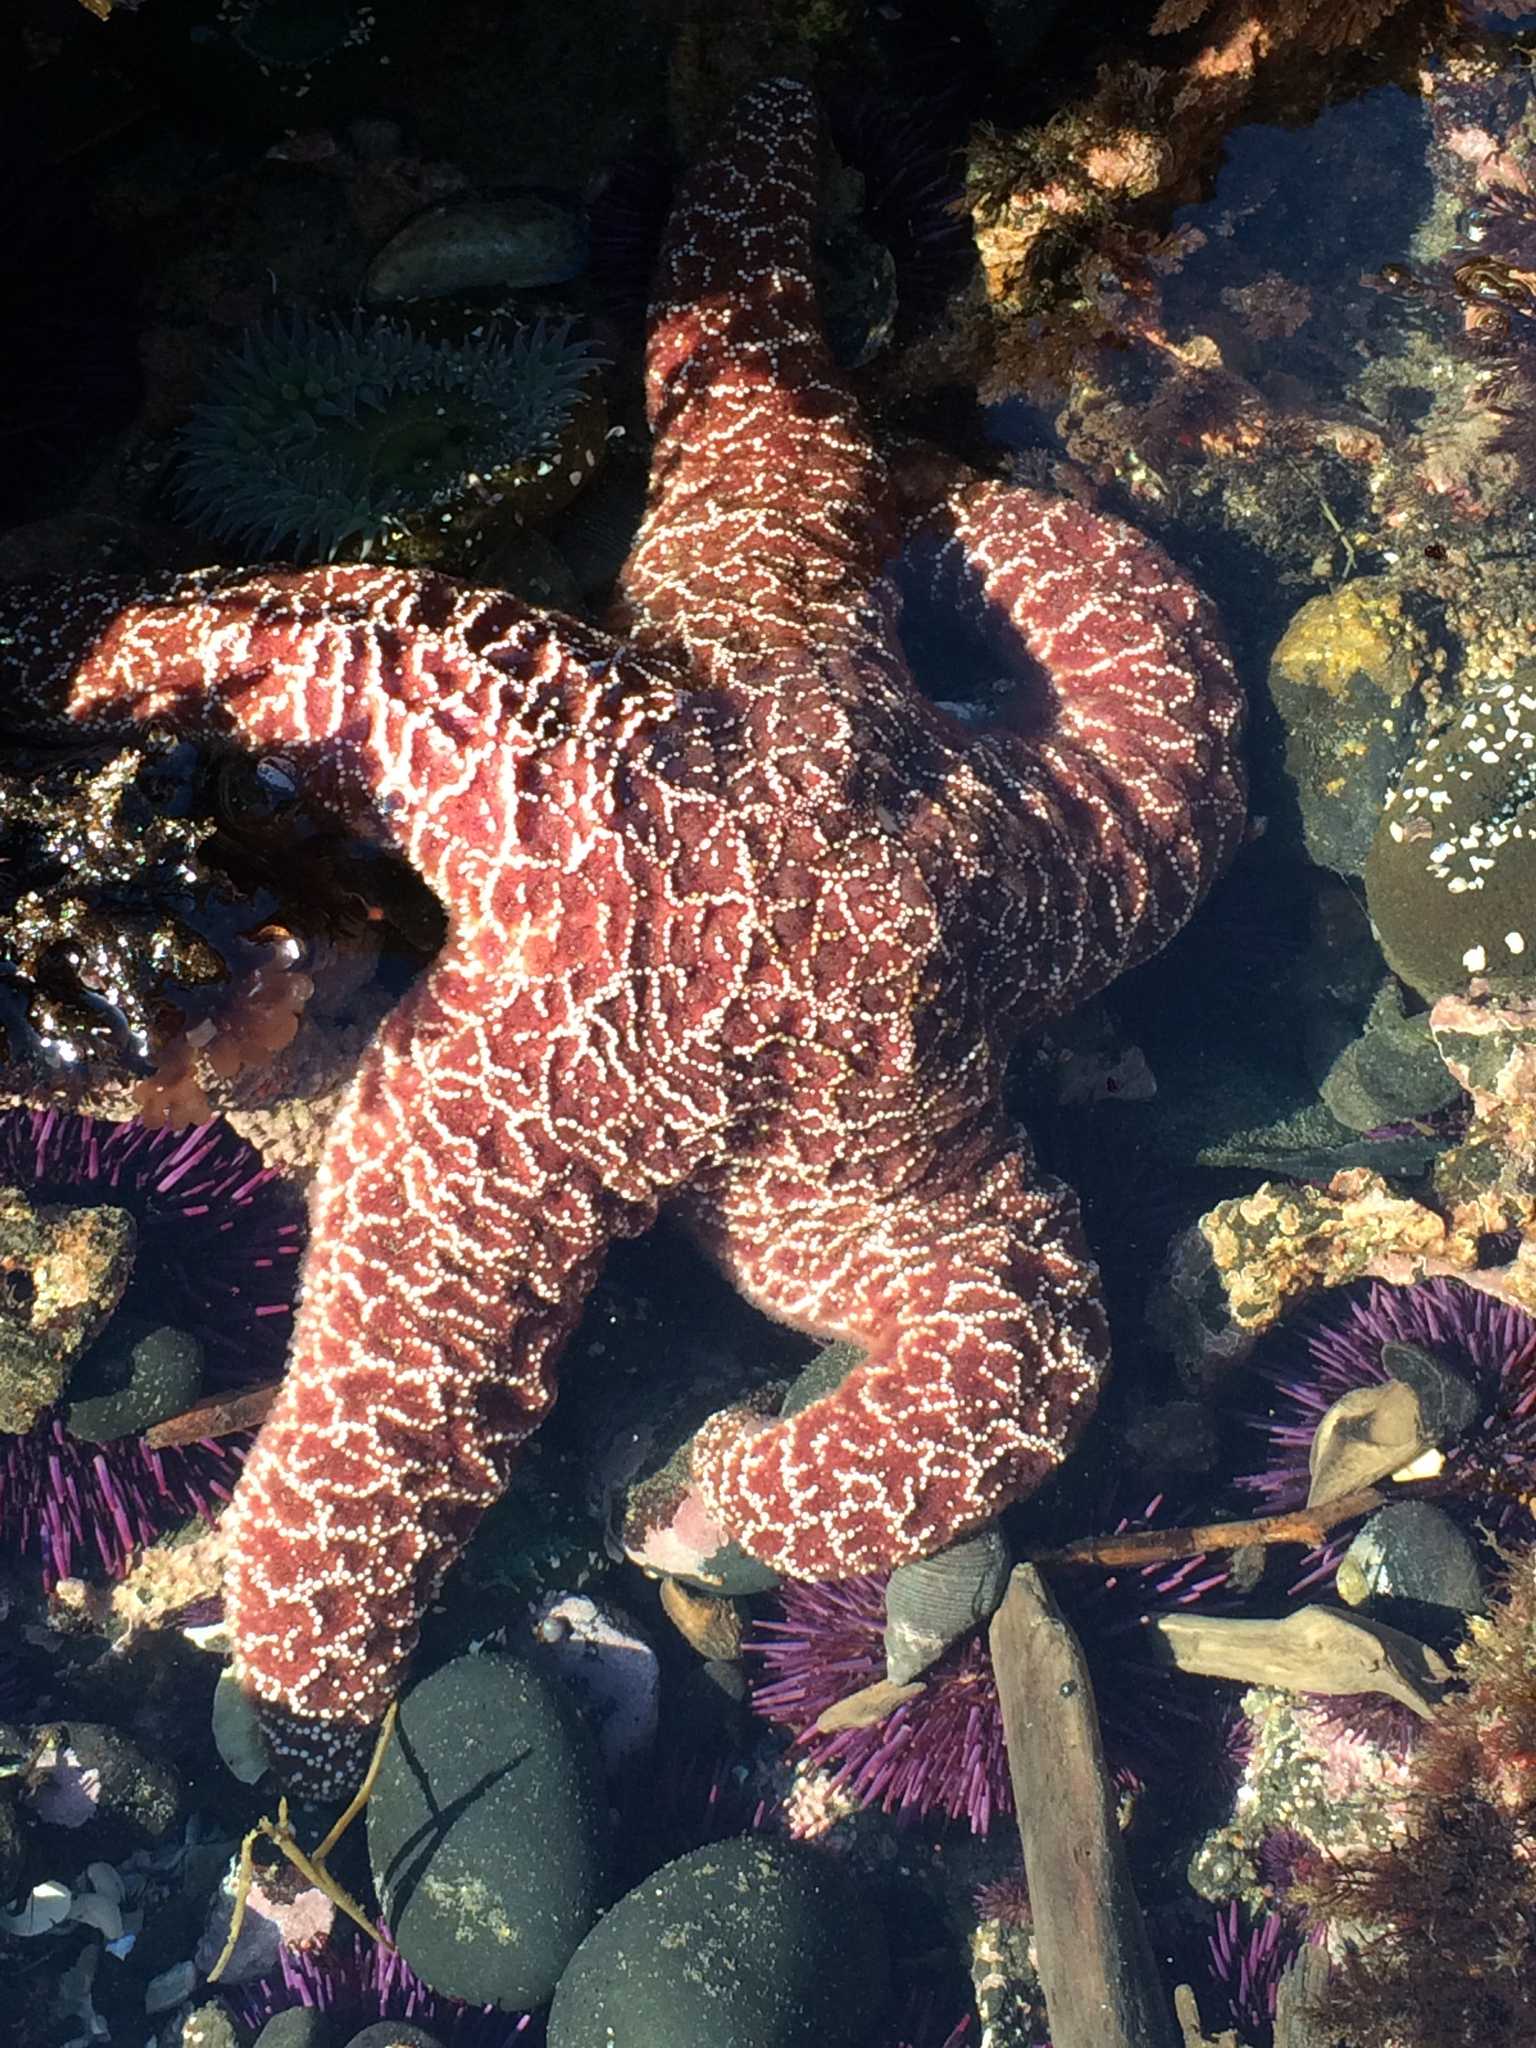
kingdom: Animalia
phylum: Echinodermata
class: Asteroidea
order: Forcipulatida
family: Asteriidae
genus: Pisaster
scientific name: Pisaster ochraceus
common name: Ochre stars
